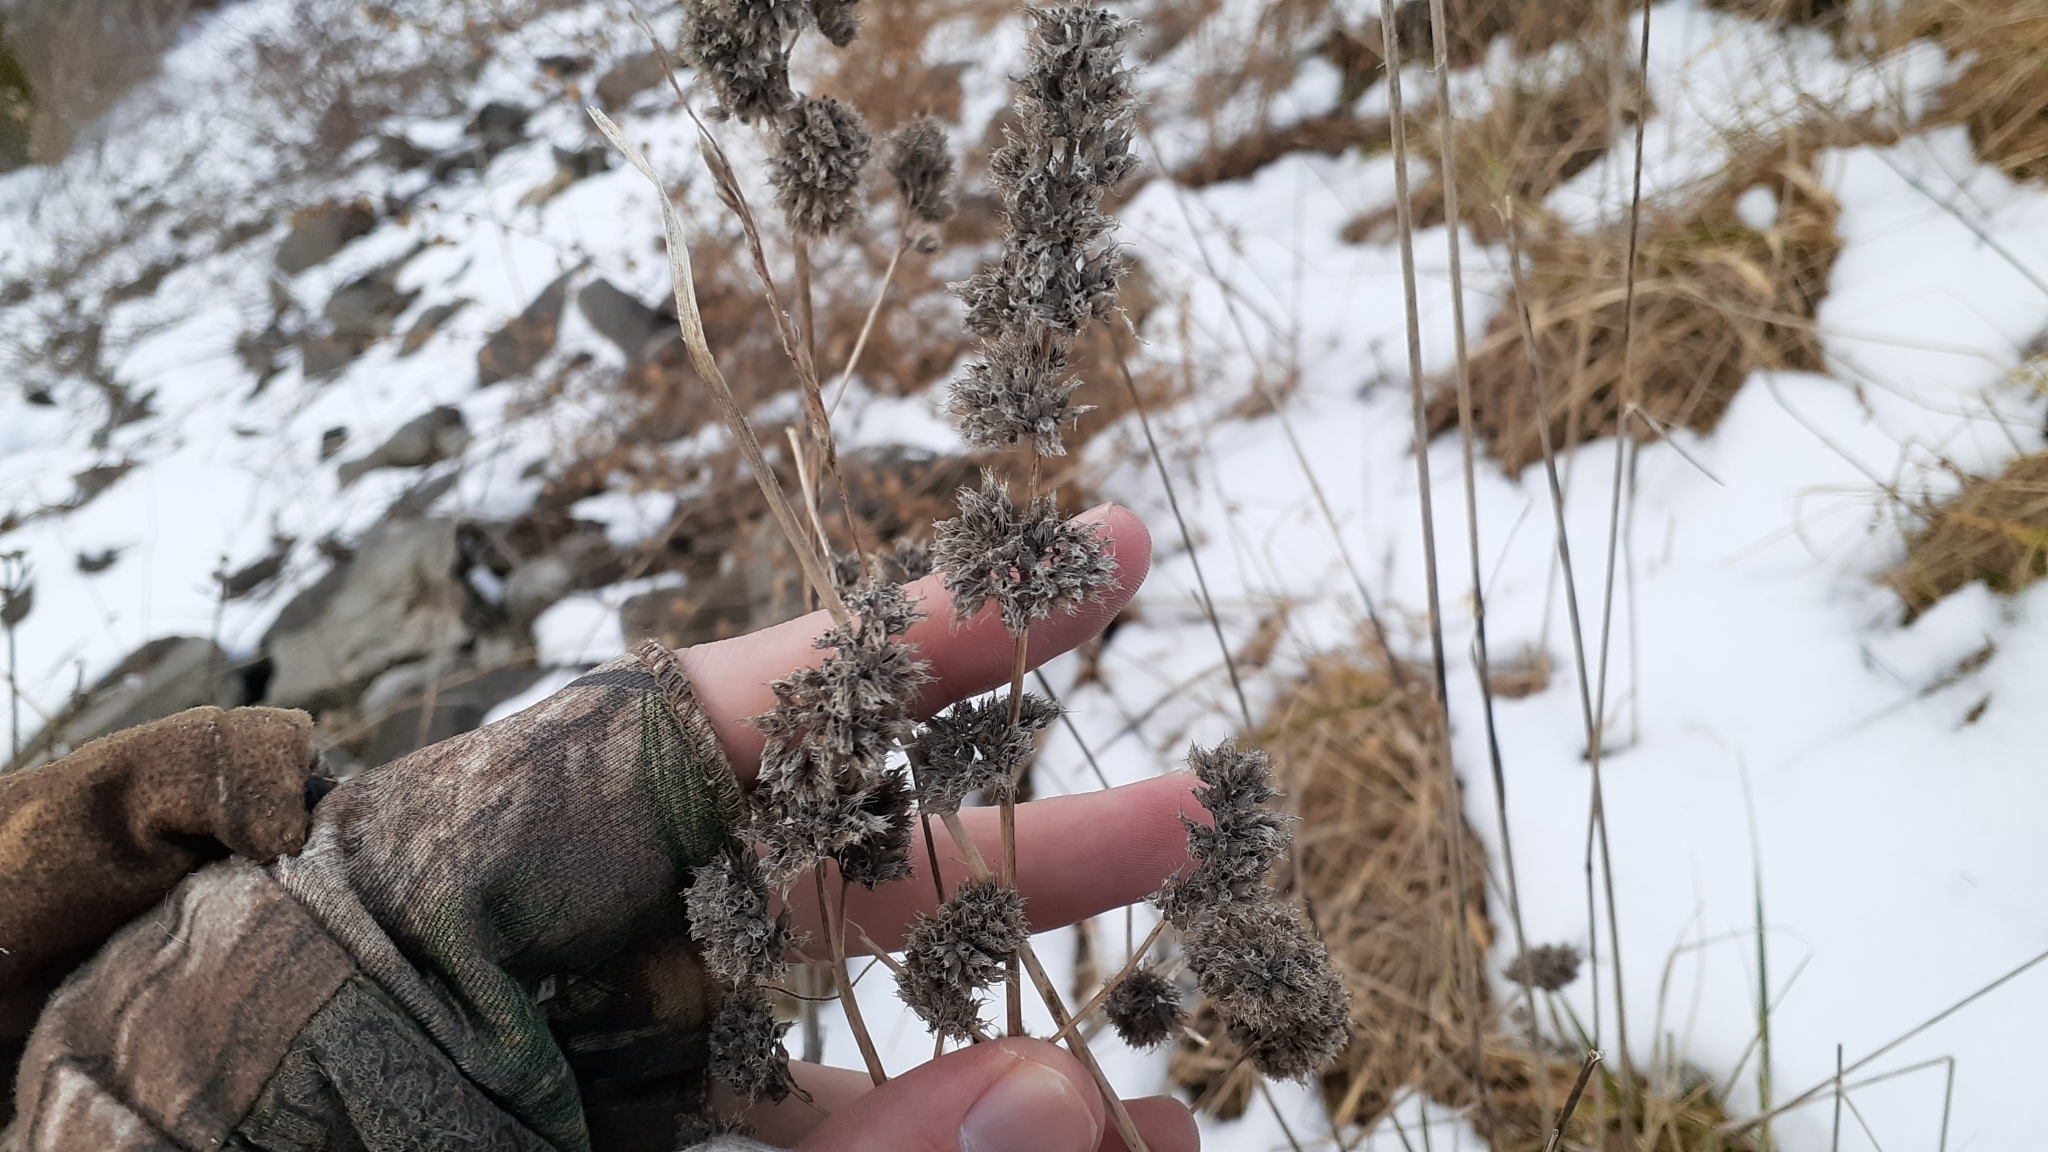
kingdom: Plantae
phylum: Tracheophyta
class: Magnoliopsida
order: Lamiales
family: Lamiaceae
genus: Nepeta
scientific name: Nepeta cataria
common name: Catnip
